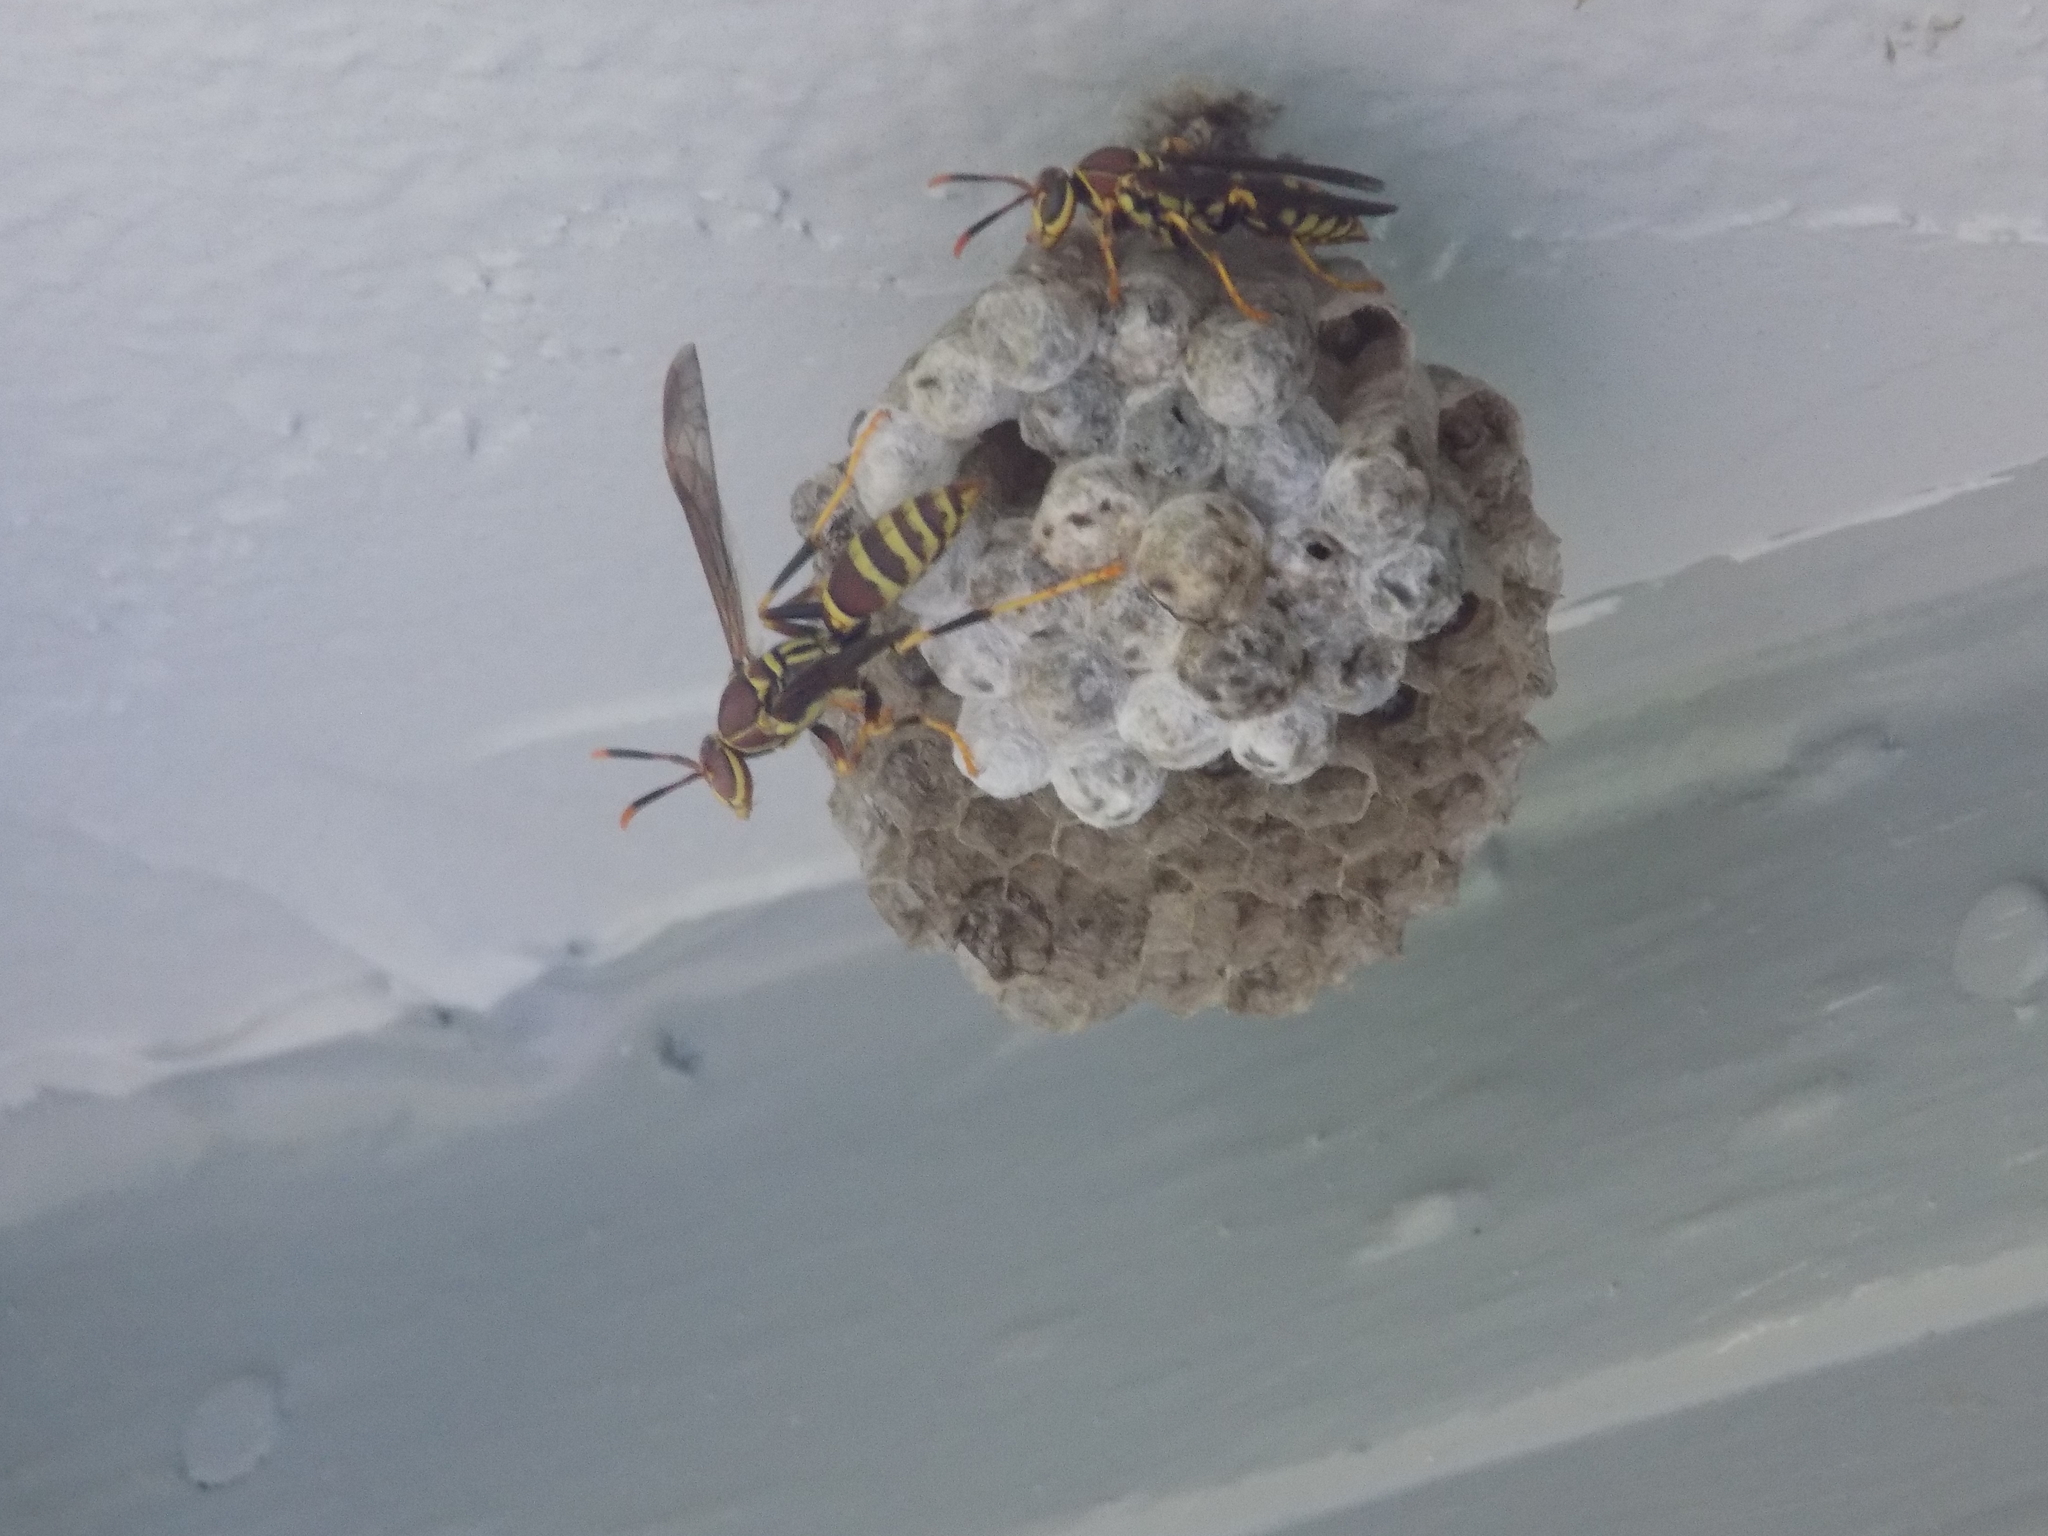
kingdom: Animalia
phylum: Arthropoda
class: Insecta
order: Hymenoptera
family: Eumenidae
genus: Polistes
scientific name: Polistes exclamans
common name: Paper wasp
